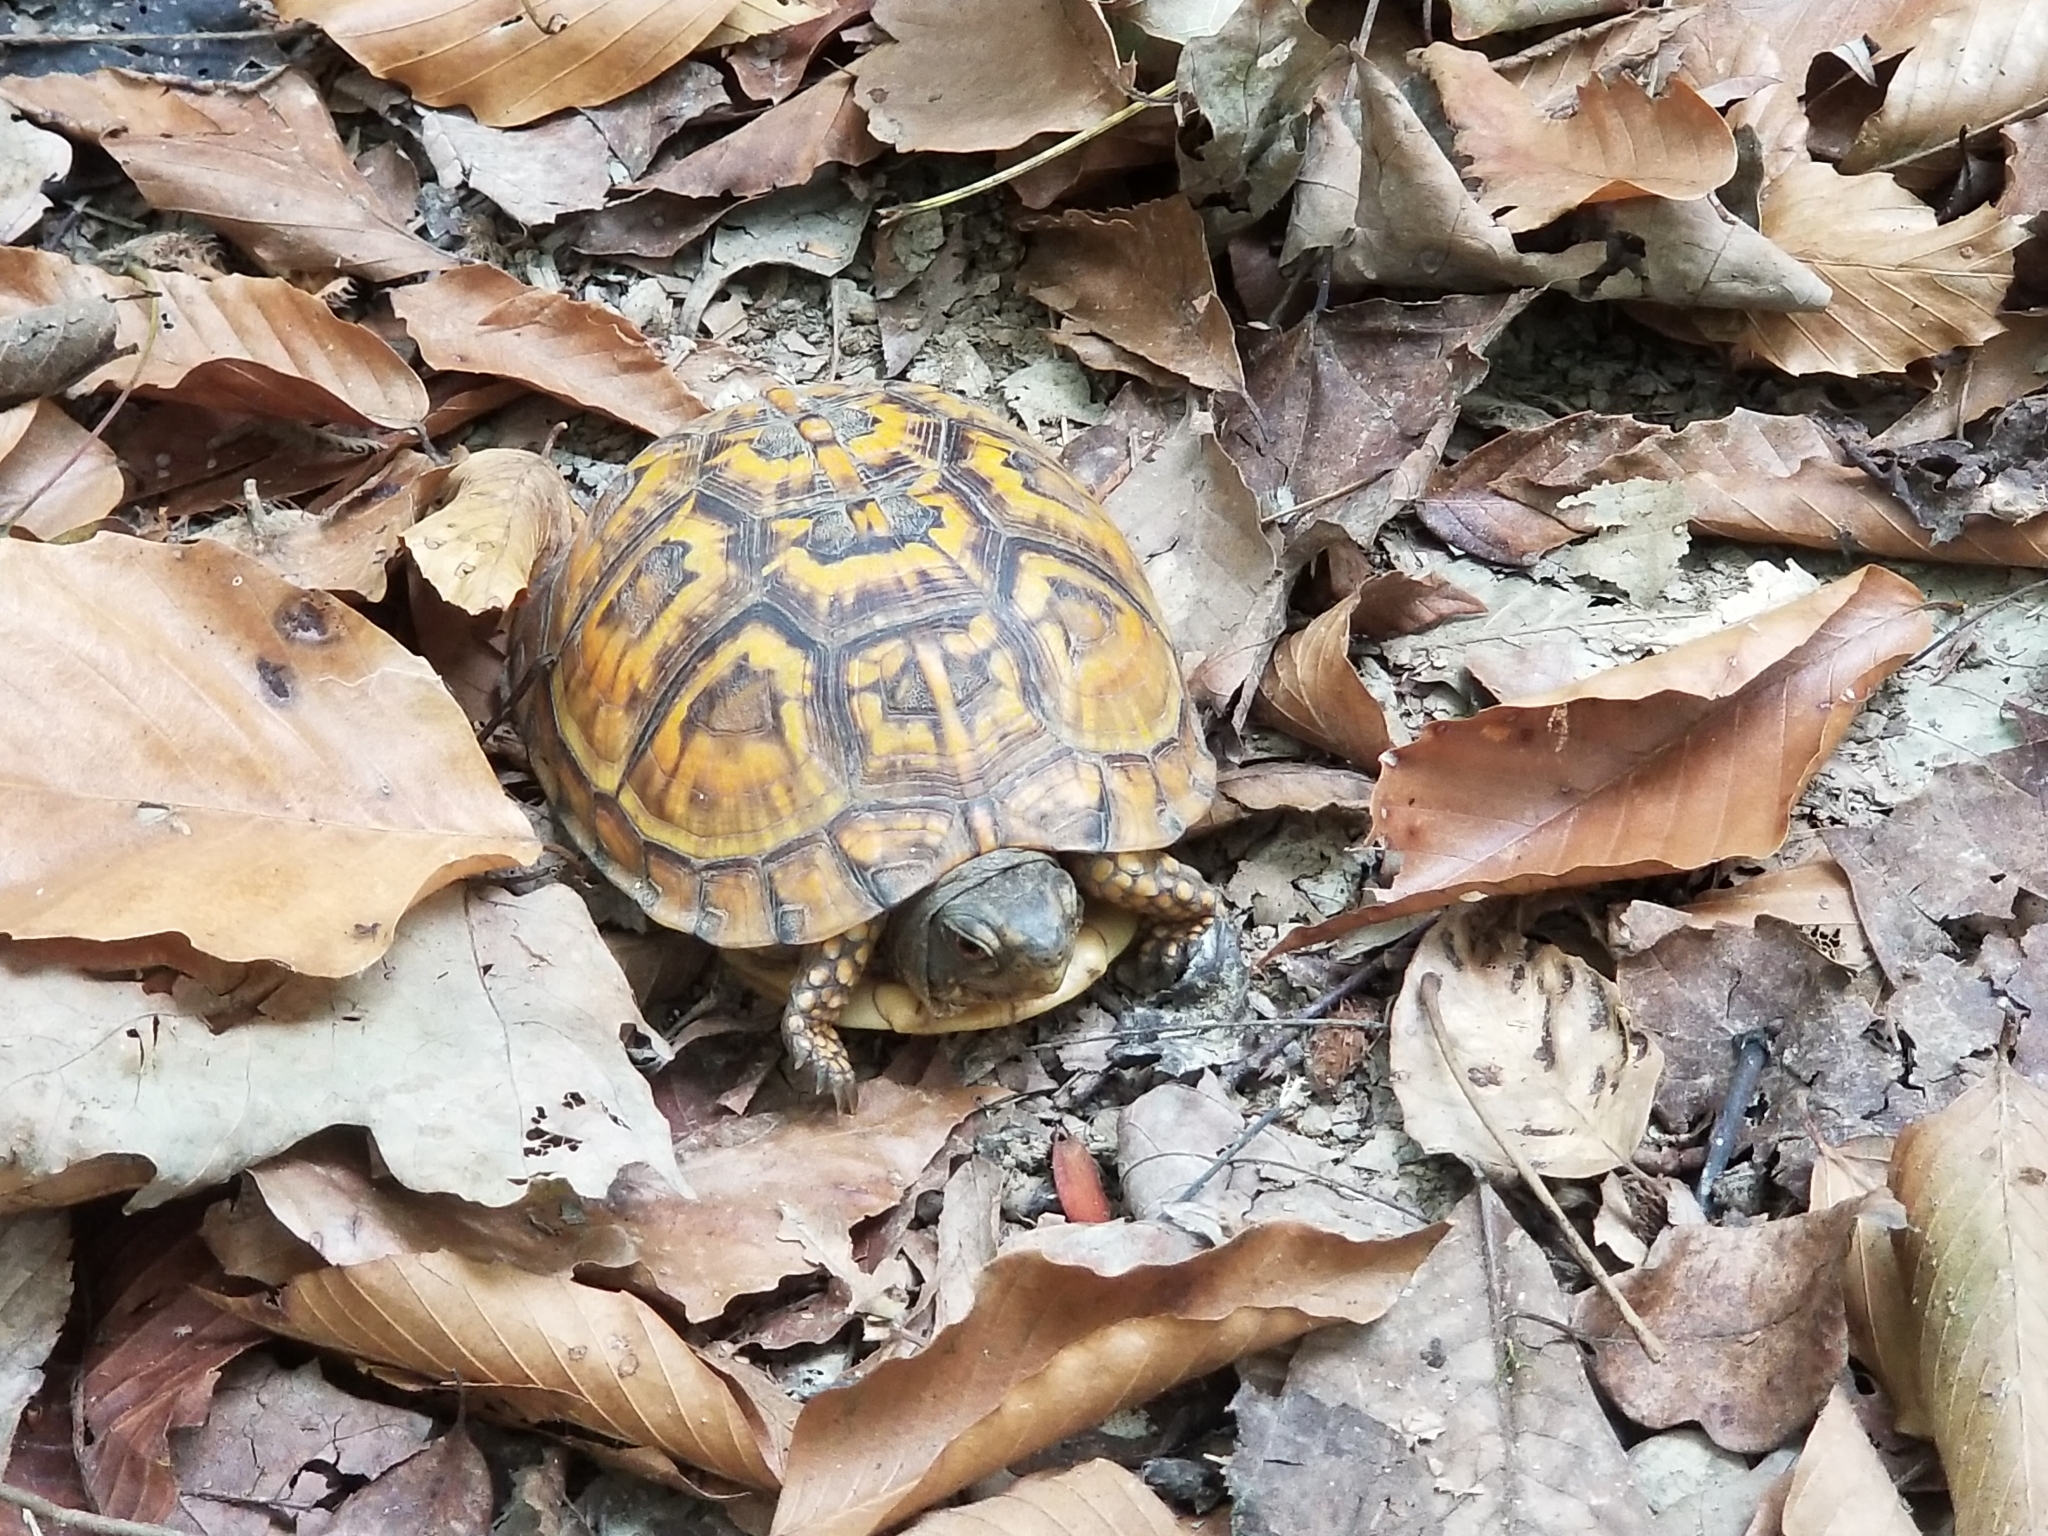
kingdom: Animalia
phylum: Chordata
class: Testudines
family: Emydidae
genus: Terrapene
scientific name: Terrapene carolina
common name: Common box turtle
